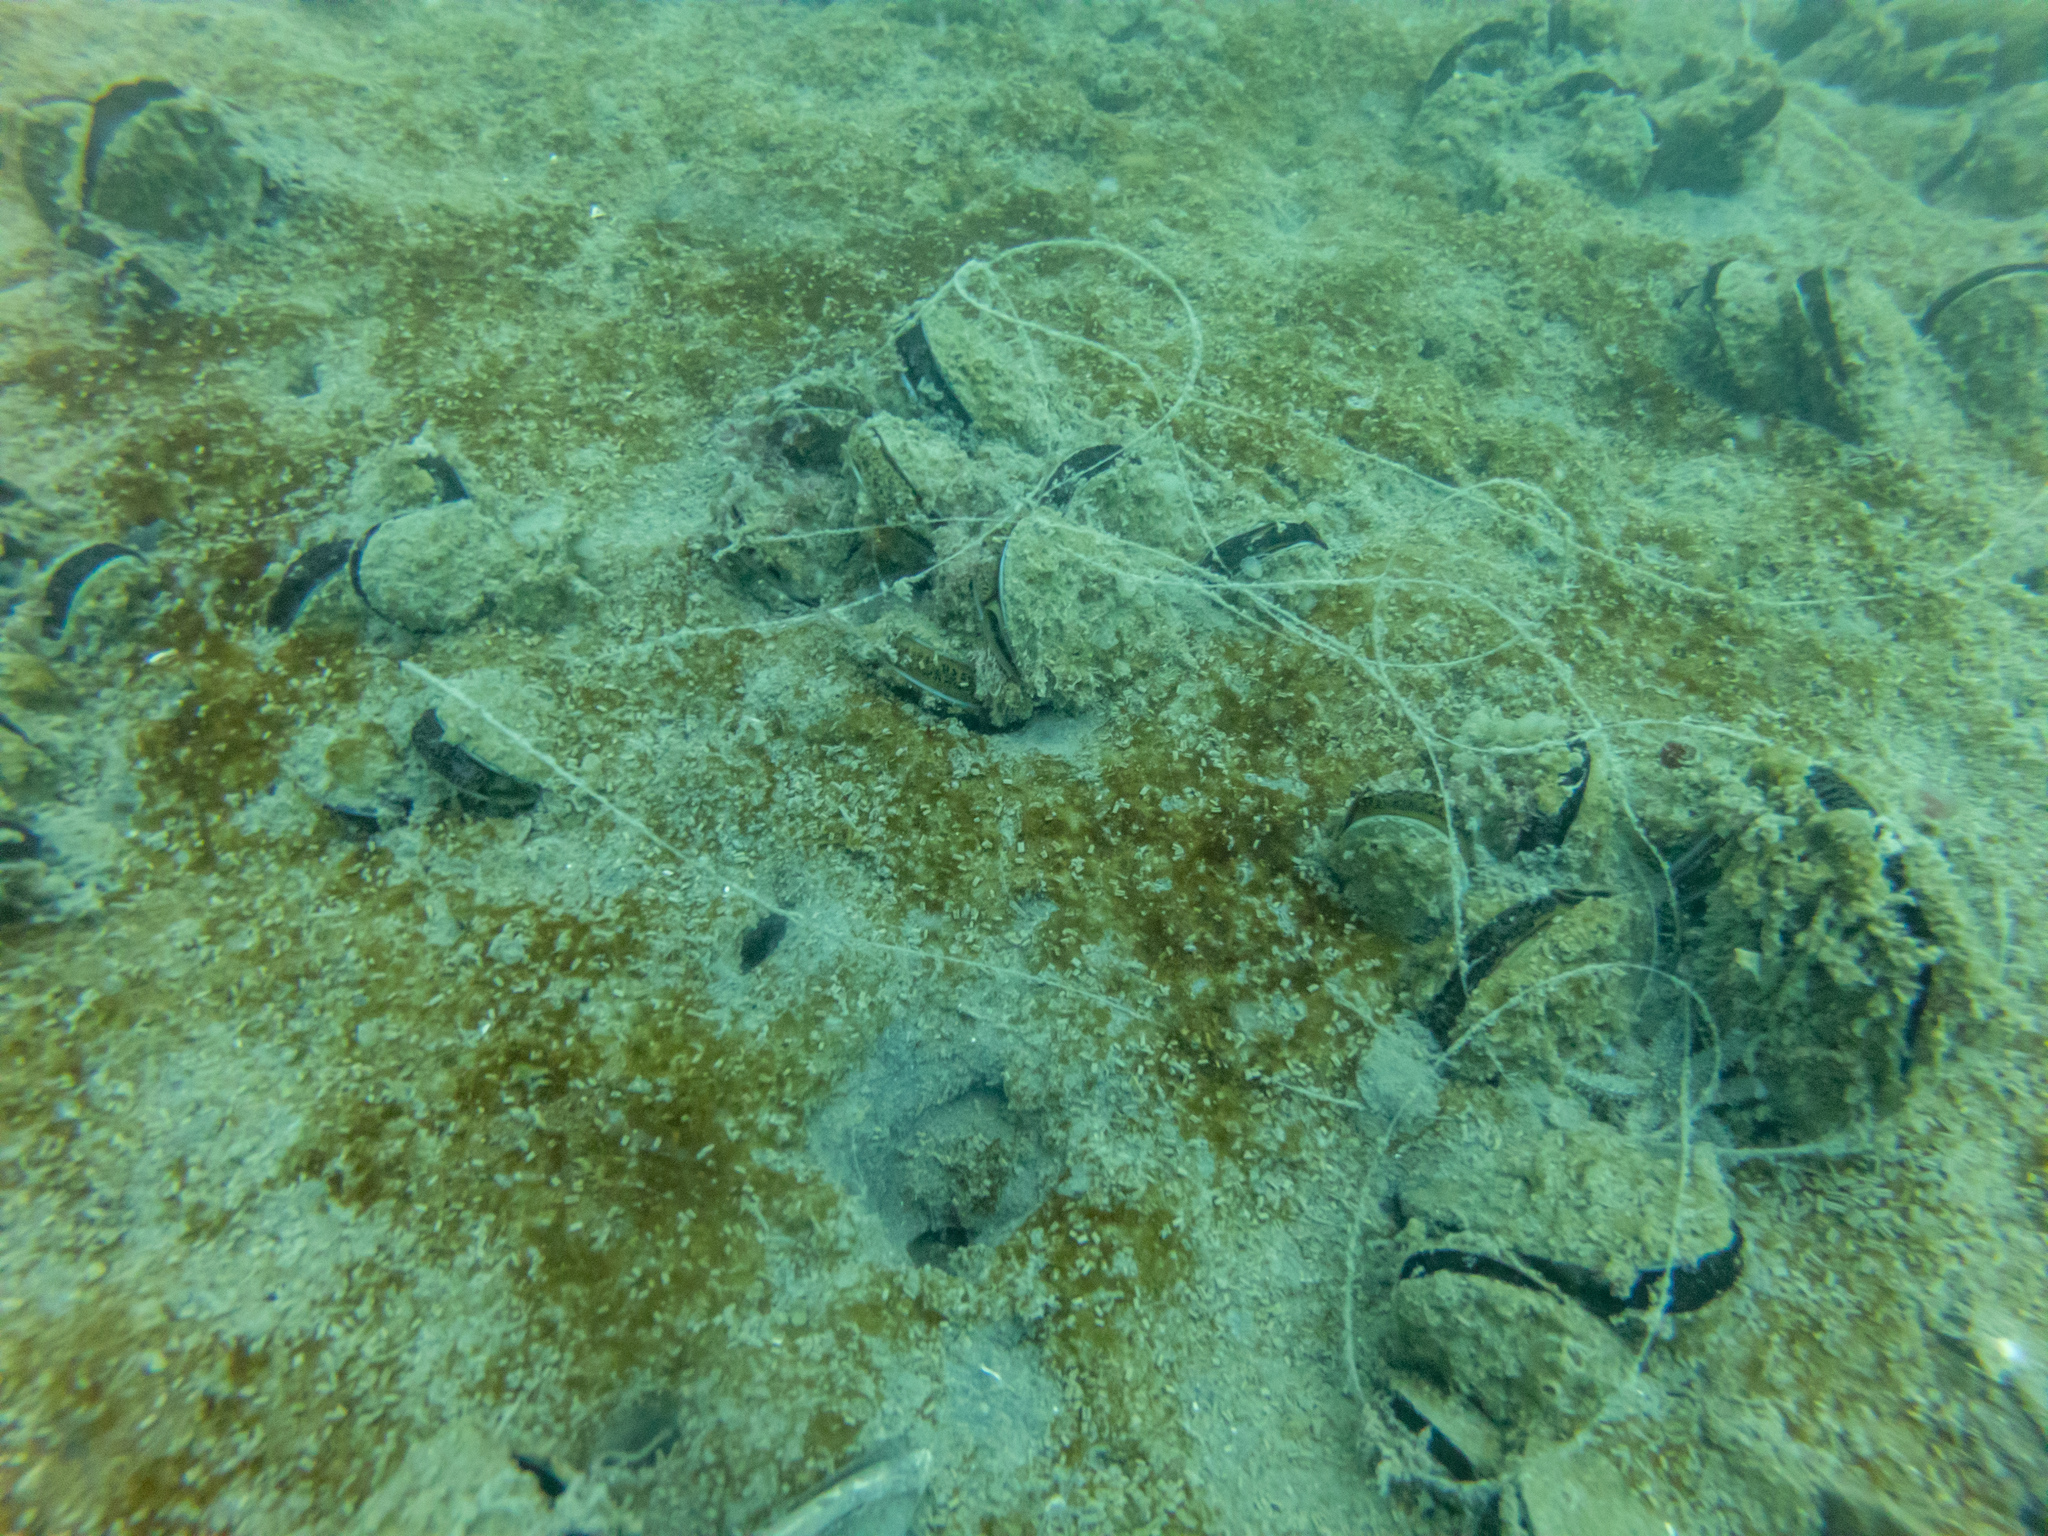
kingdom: Animalia
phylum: Mollusca
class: Bivalvia
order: Mytilida
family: Mytilidae
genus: Perna
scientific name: Perna canaliculus
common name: New zealand greenshelltm
